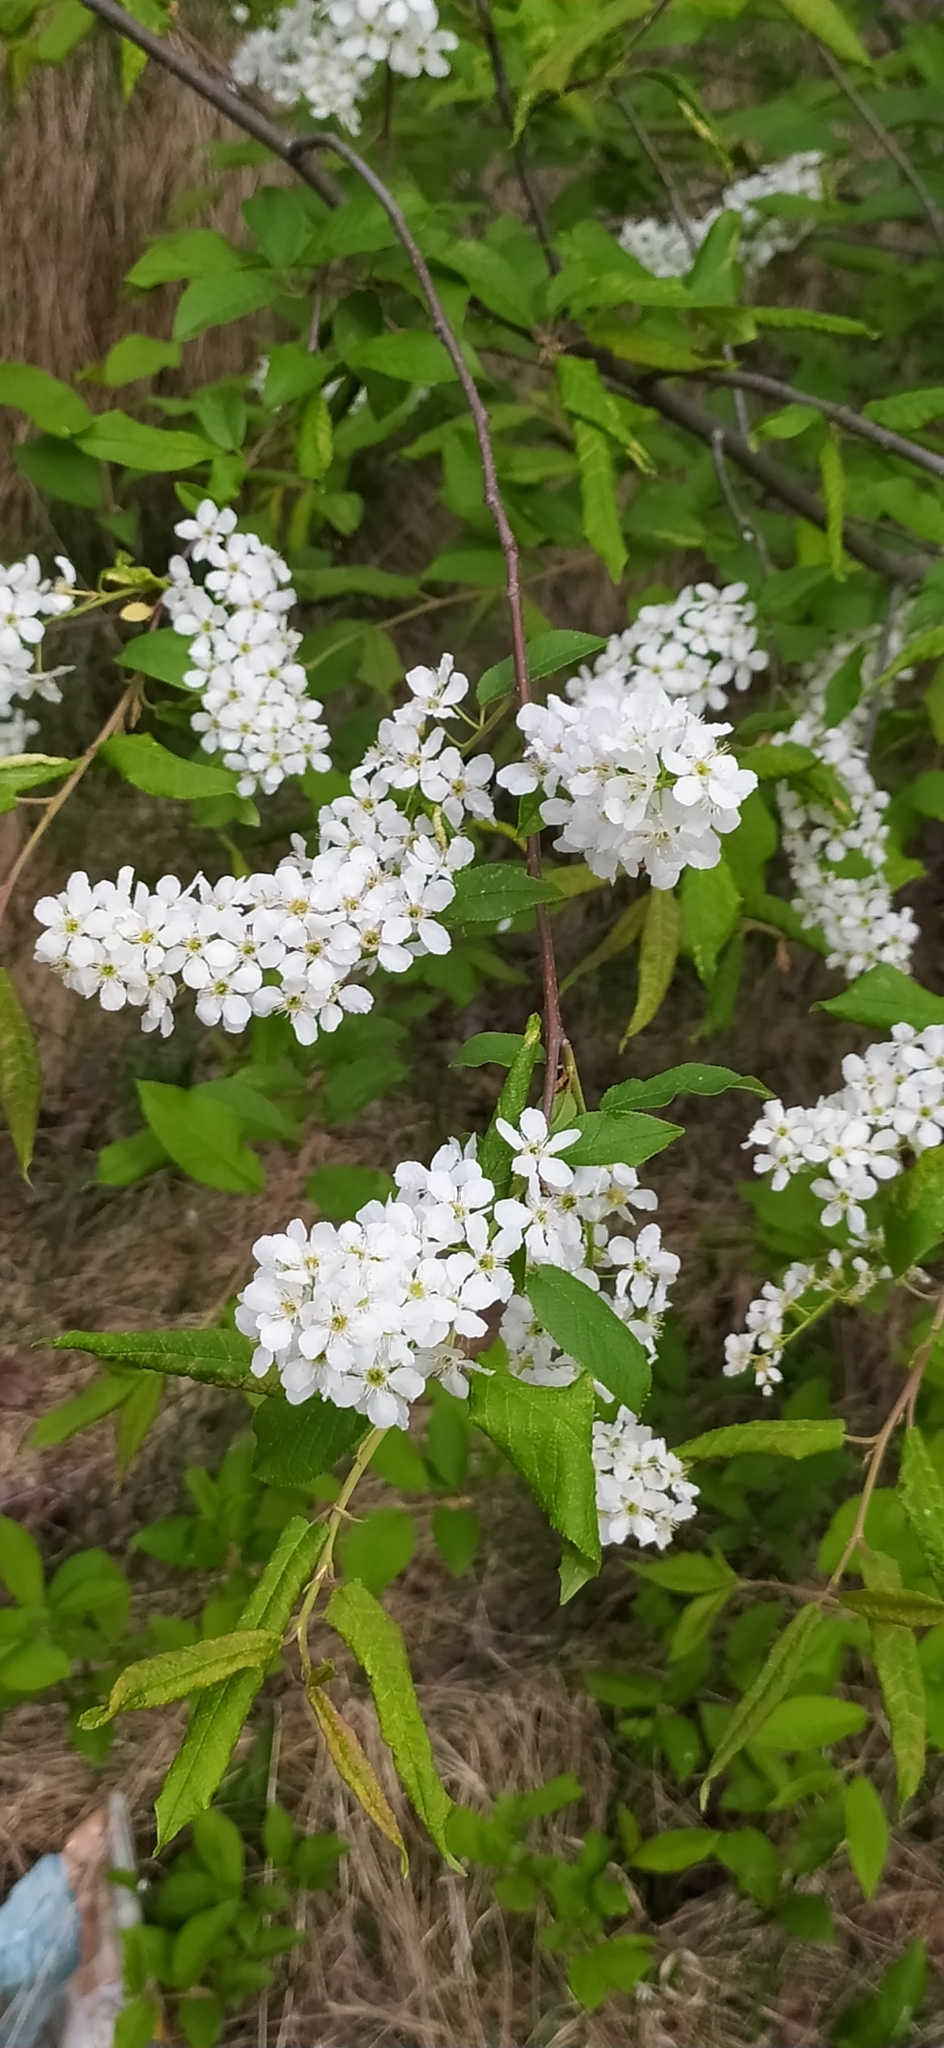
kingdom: Plantae
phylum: Tracheophyta
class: Magnoliopsida
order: Rosales
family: Rosaceae
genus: Prunus
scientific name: Prunus padus
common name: Bird cherry
